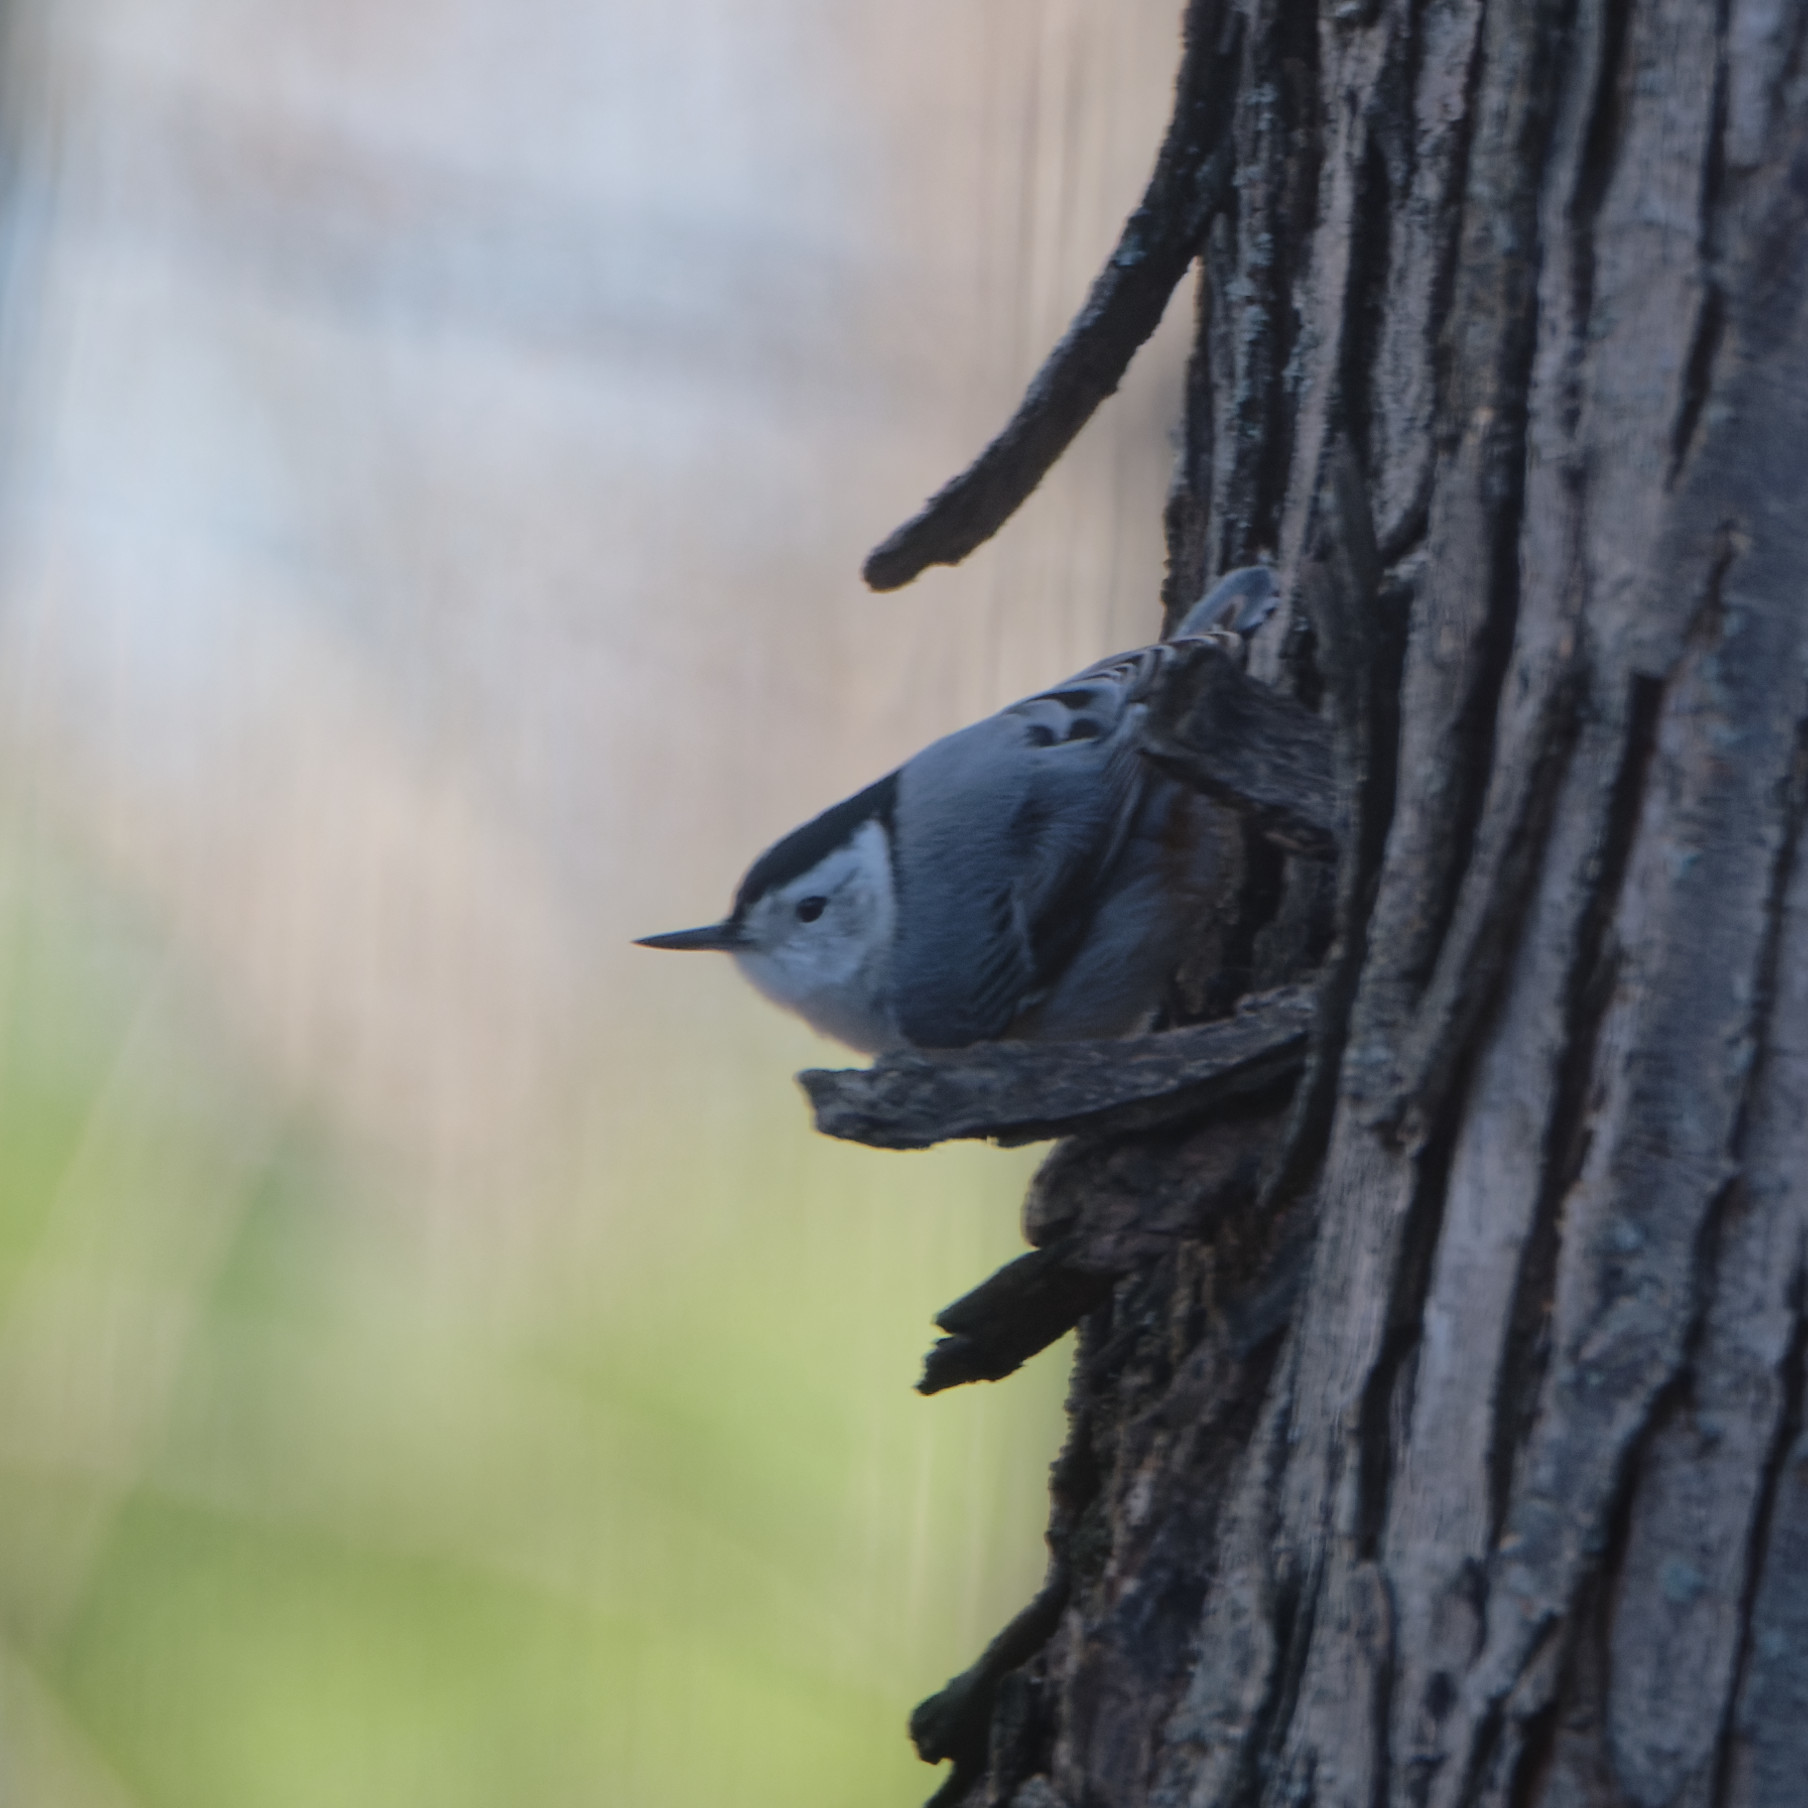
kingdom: Animalia
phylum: Chordata
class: Aves
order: Passeriformes
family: Sittidae
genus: Sitta
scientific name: Sitta carolinensis
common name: White-breasted nuthatch
